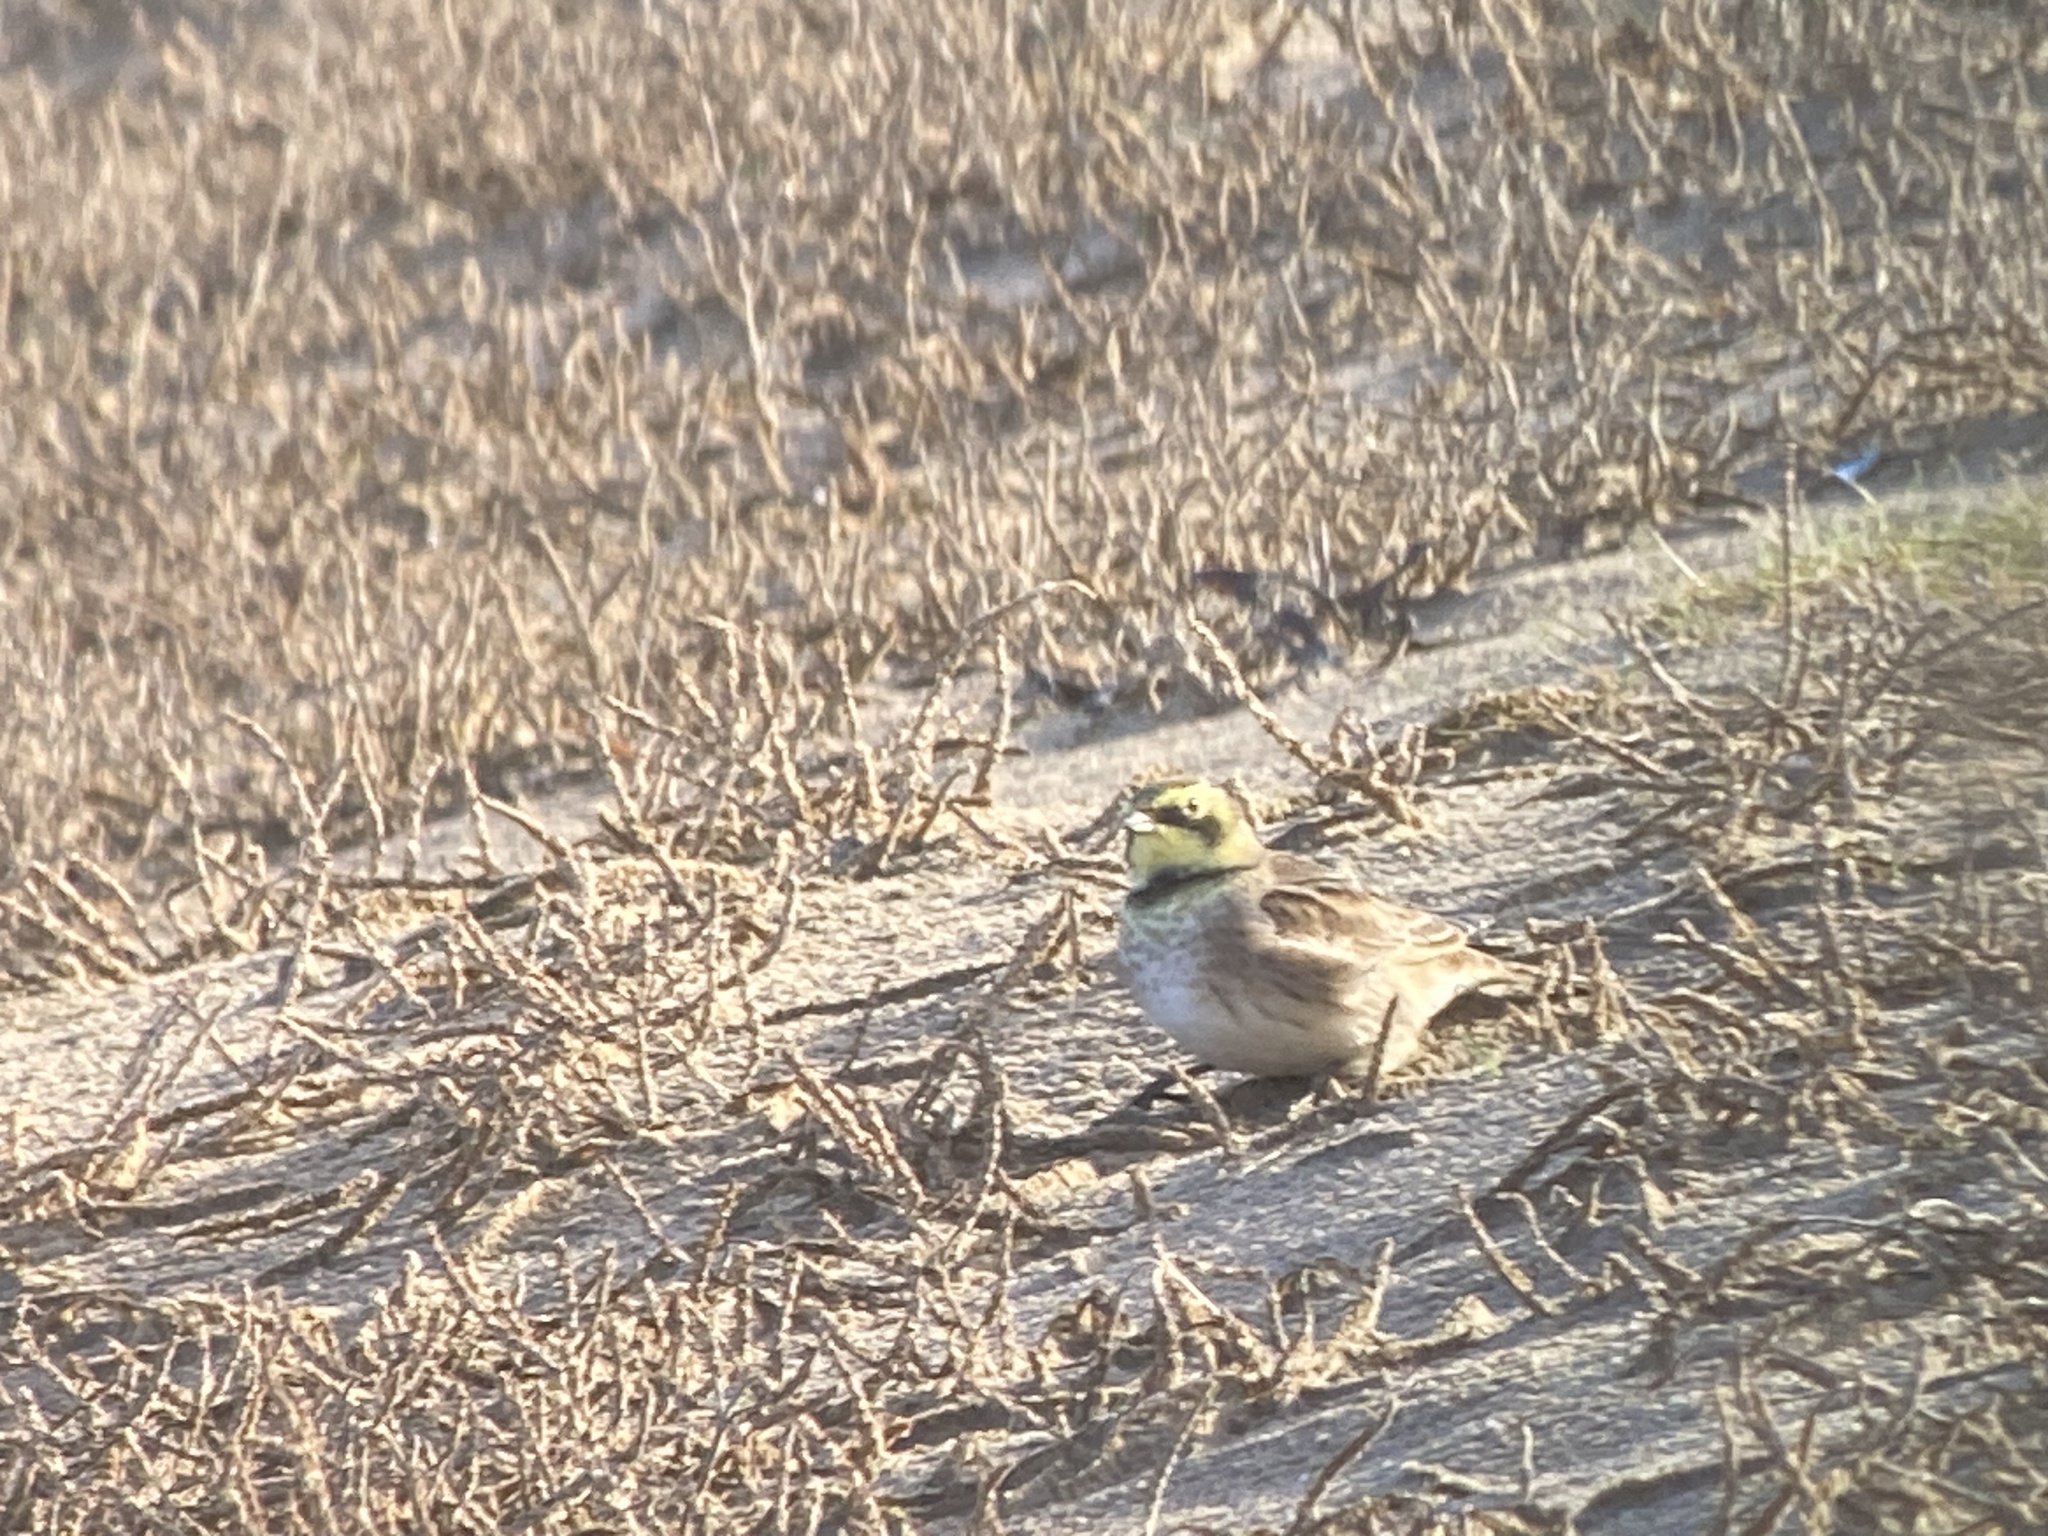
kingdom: Animalia
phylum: Chordata
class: Aves
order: Passeriformes
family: Alaudidae
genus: Eremophila
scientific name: Eremophila alpestris
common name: Horned lark
